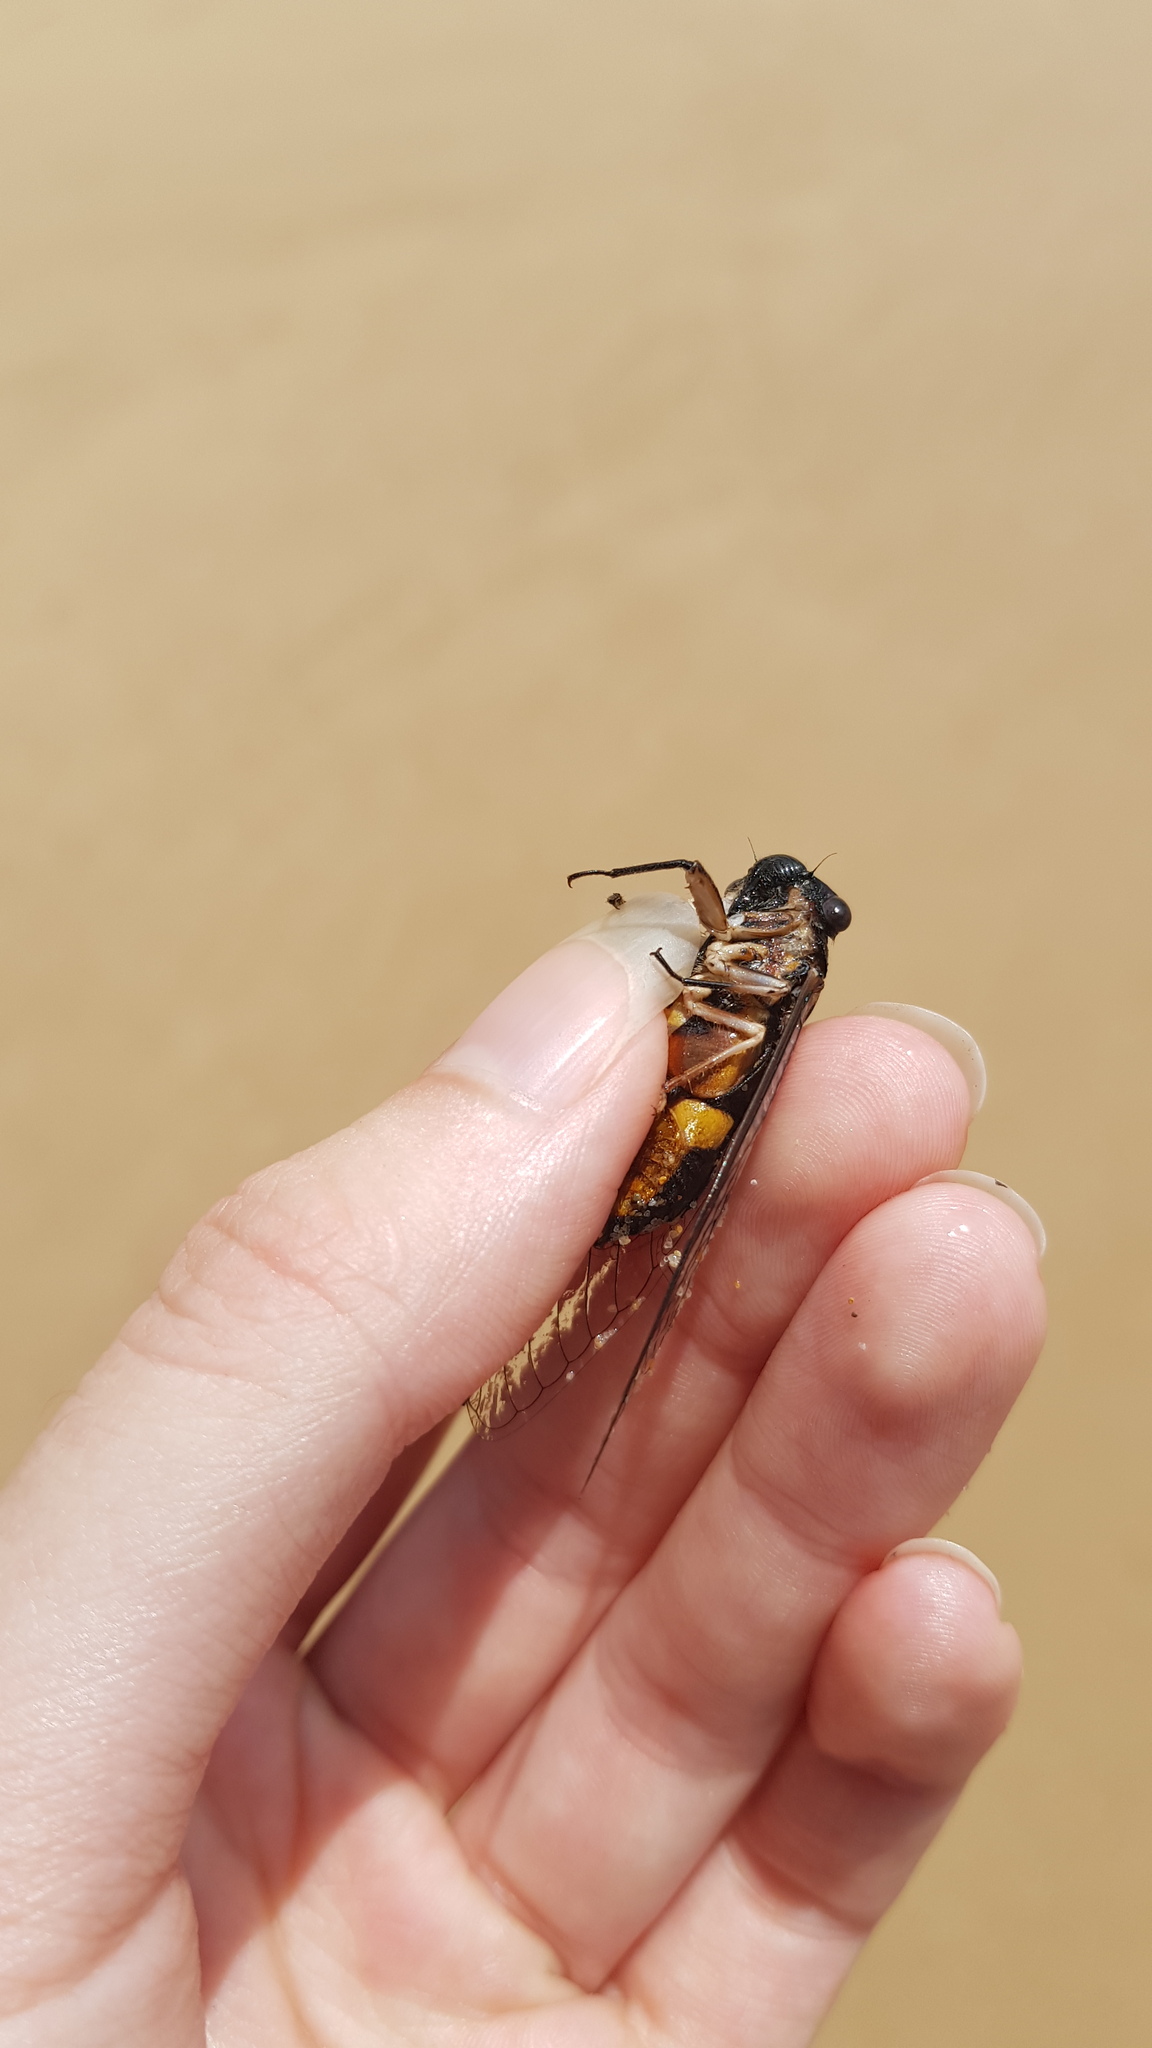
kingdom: Animalia
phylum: Arthropoda
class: Insecta
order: Hemiptera
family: Cicadidae
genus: Psaltoda
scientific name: Psaltoda harrisii
